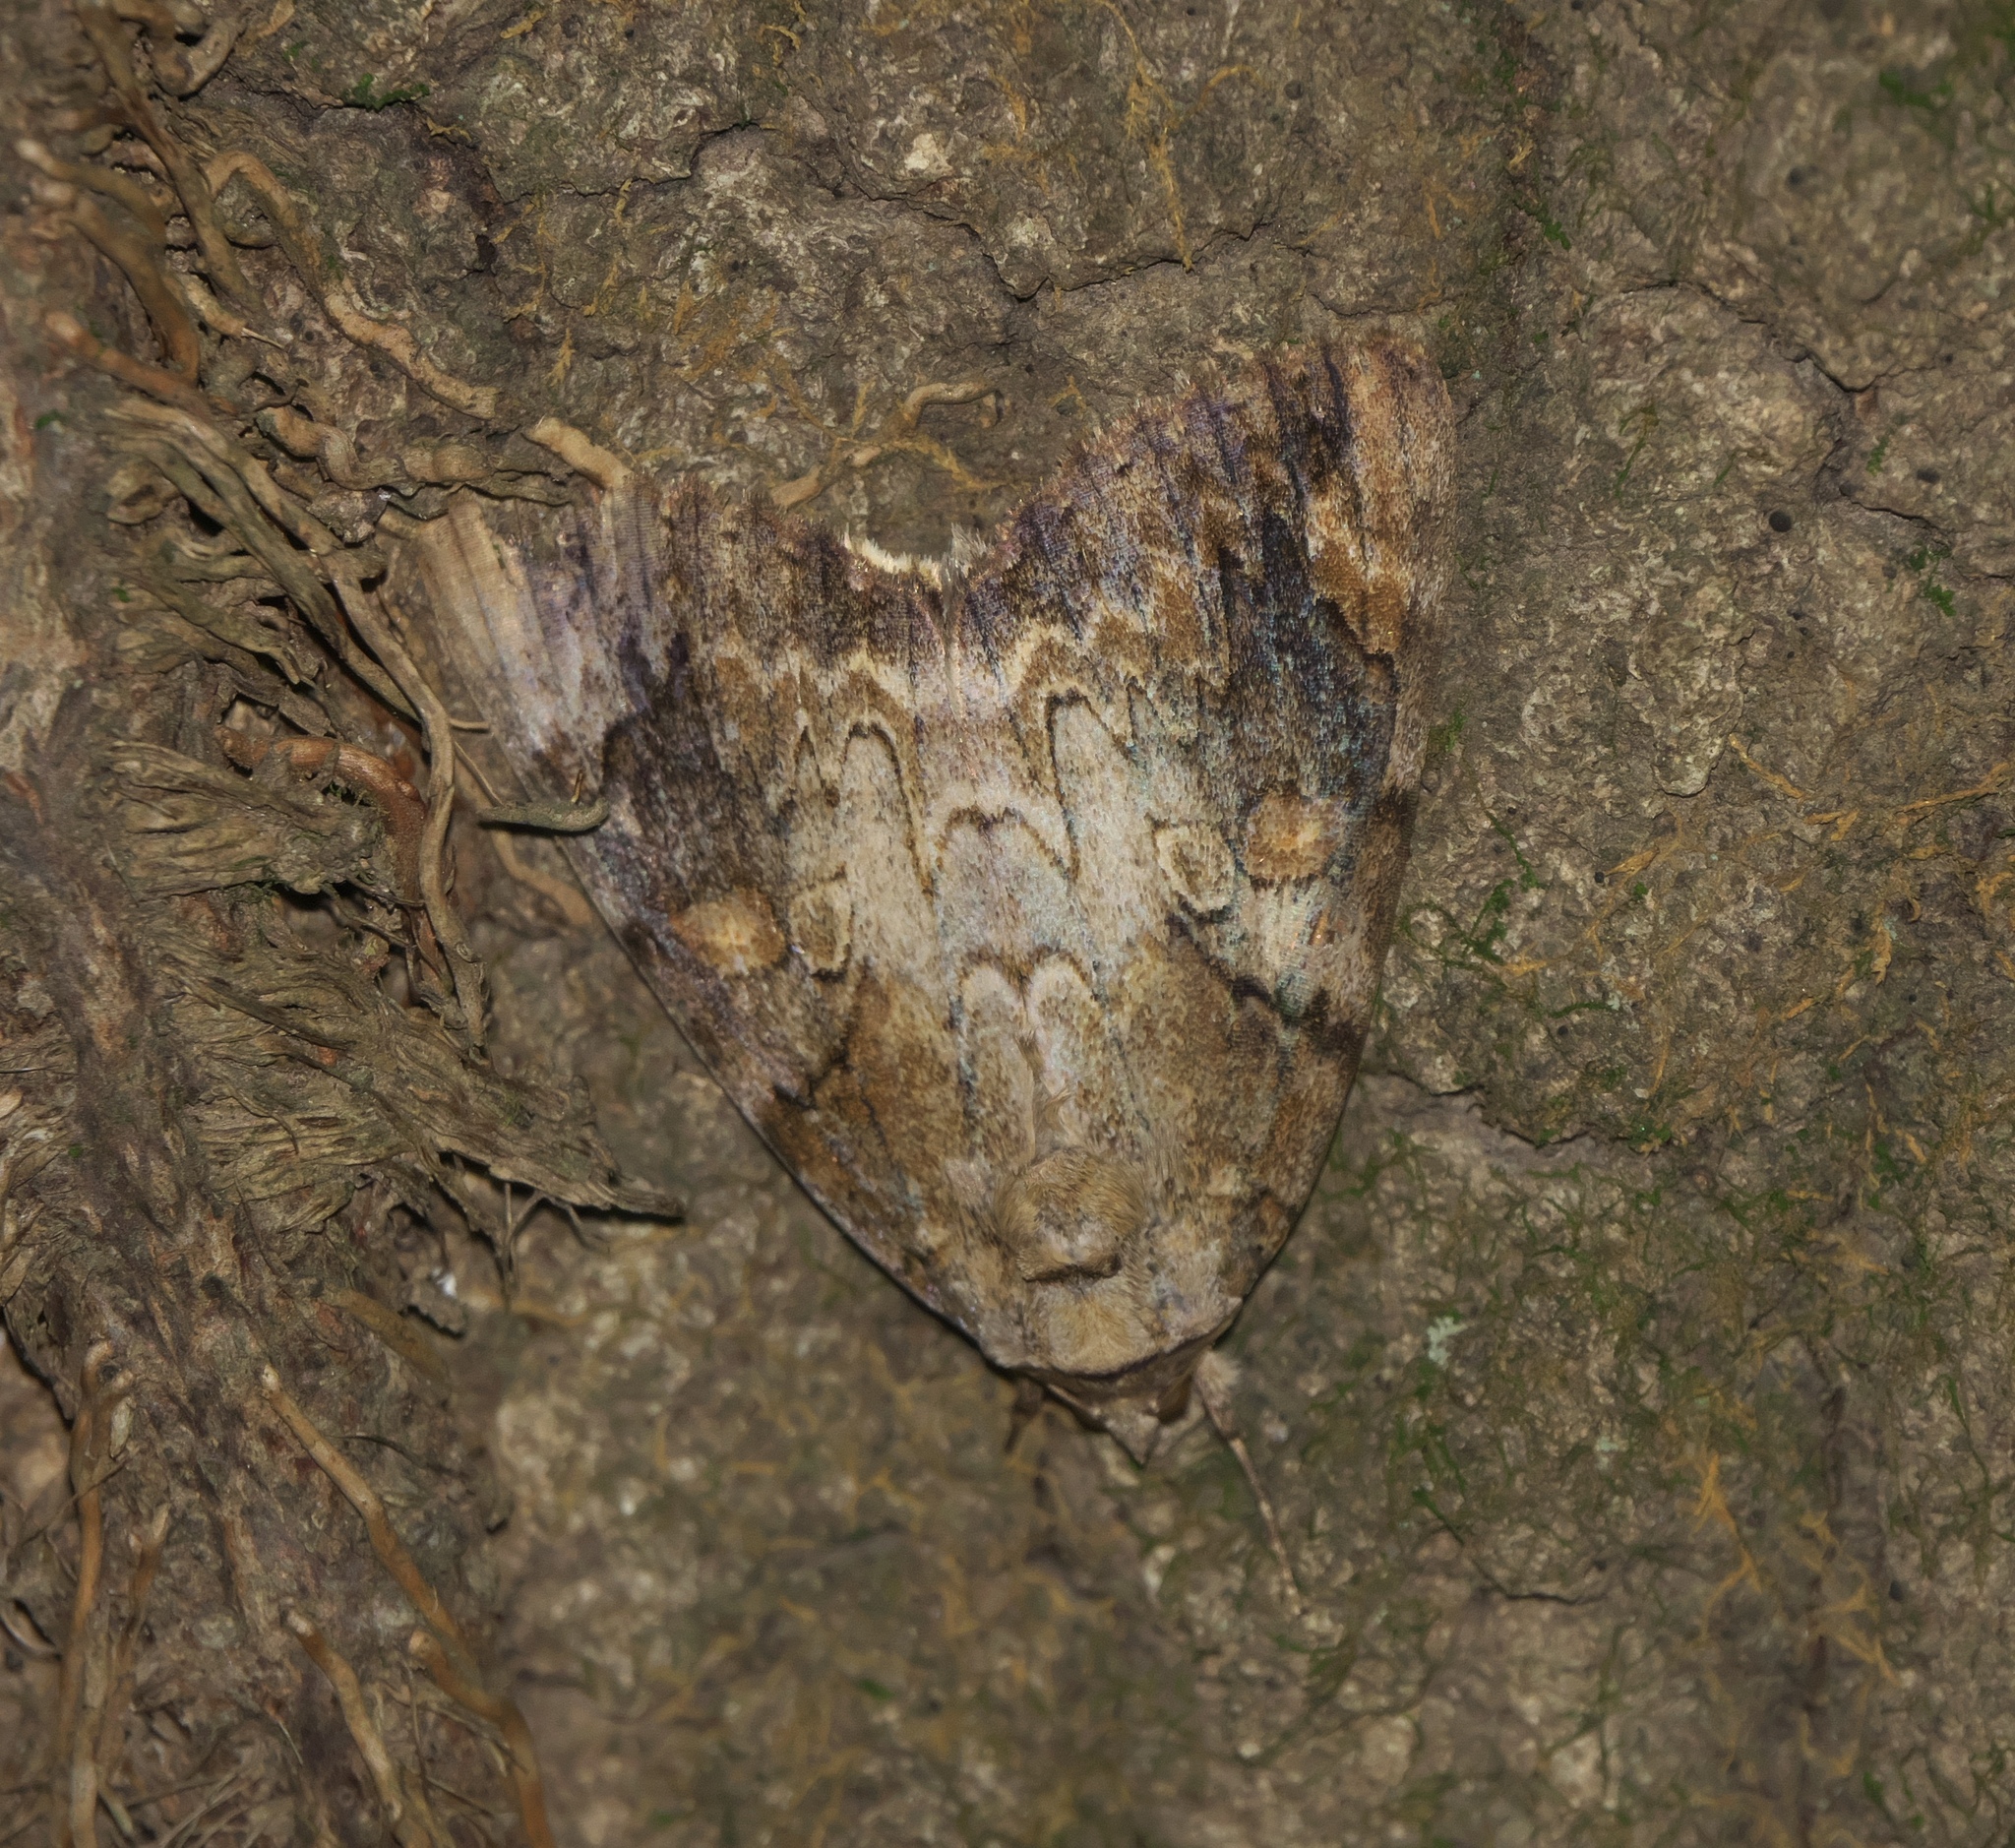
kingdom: Animalia
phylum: Arthropoda
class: Insecta
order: Lepidoptera
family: Erebidae
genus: Catocala
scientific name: Catocala atocala
